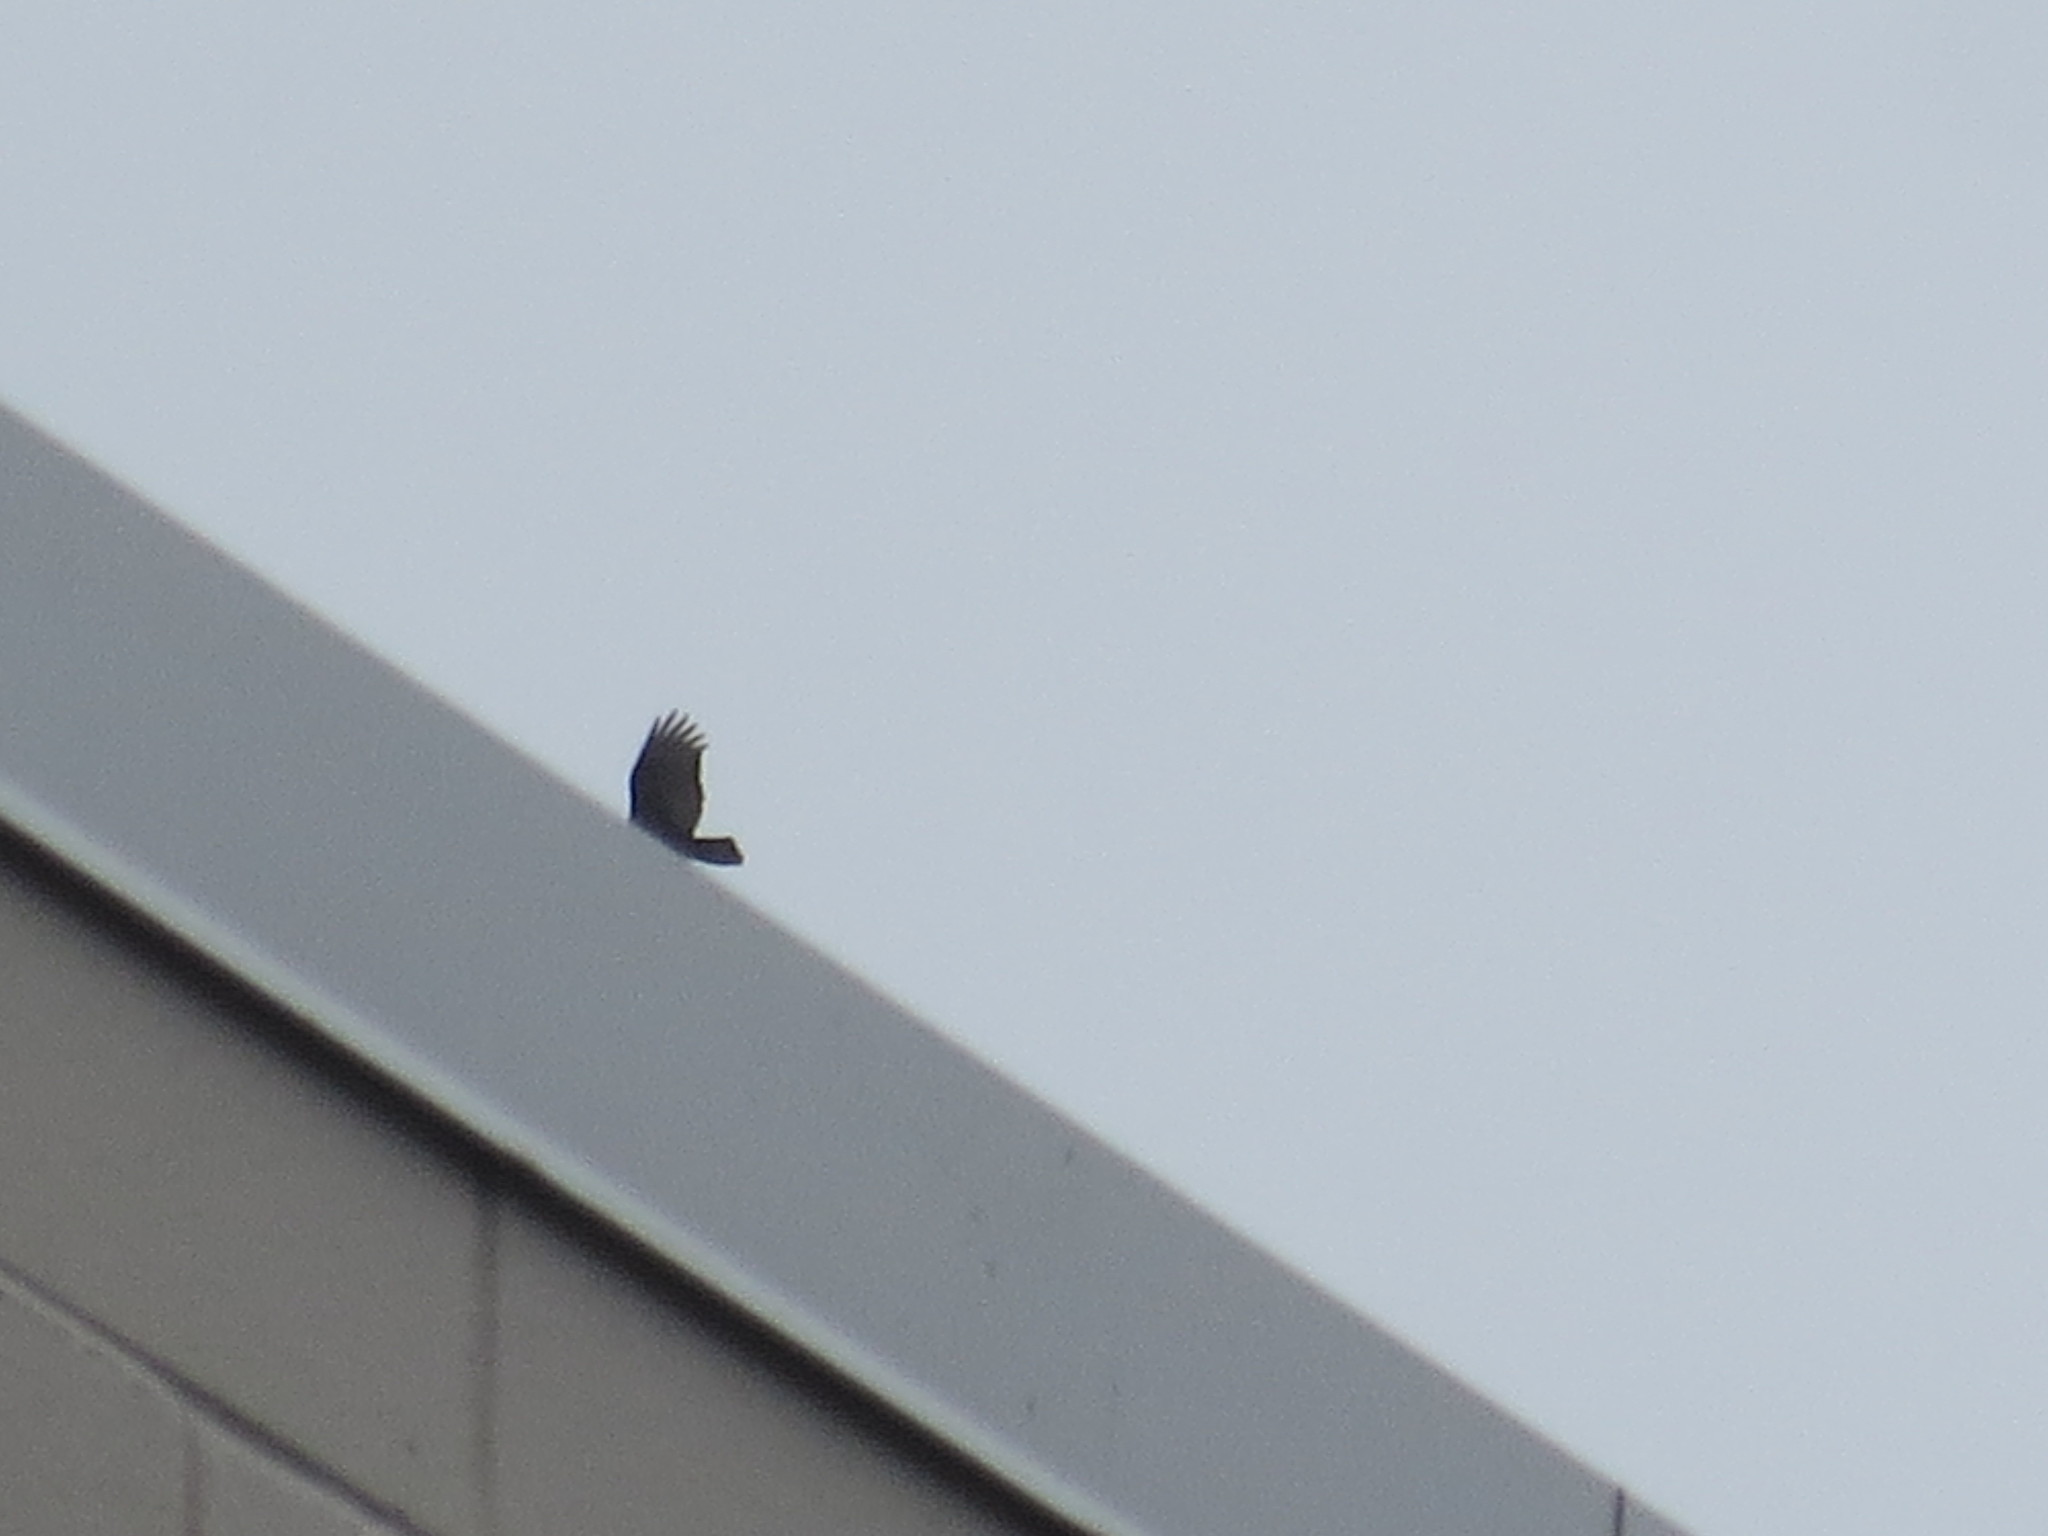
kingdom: Animalia
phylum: Chordata
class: Aves
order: Accipitriformes
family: Cathartidae
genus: Cathartes
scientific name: Cathartes aura
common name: Turkey vulture
